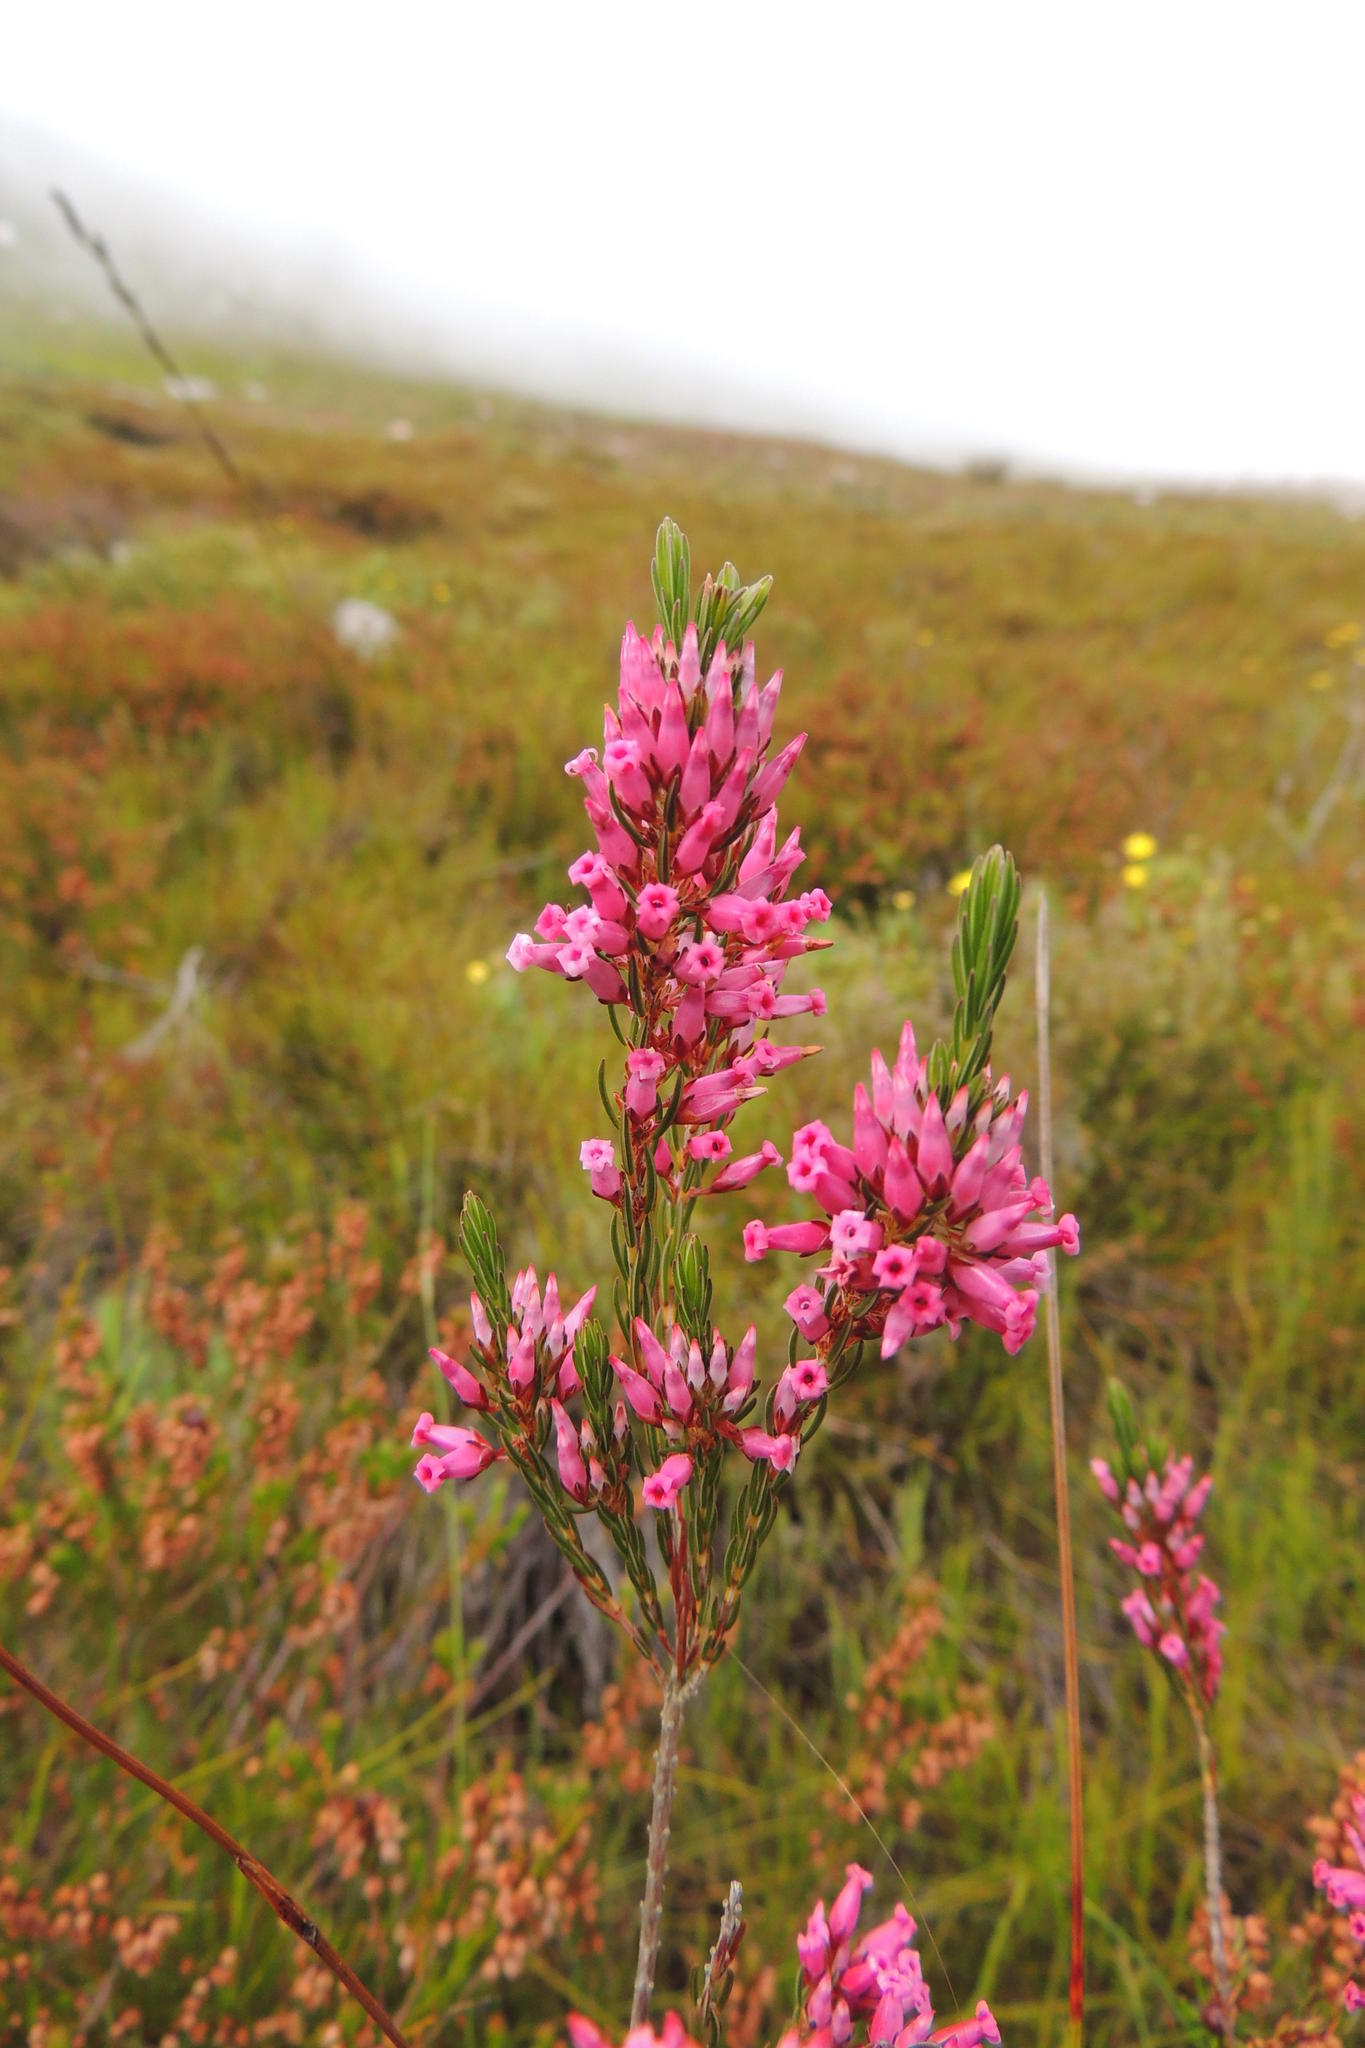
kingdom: Plantae
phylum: Tracheophyta
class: Magnoliopsida
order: Ericales
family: Ericaceae
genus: Erica
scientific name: Erica macilenta
